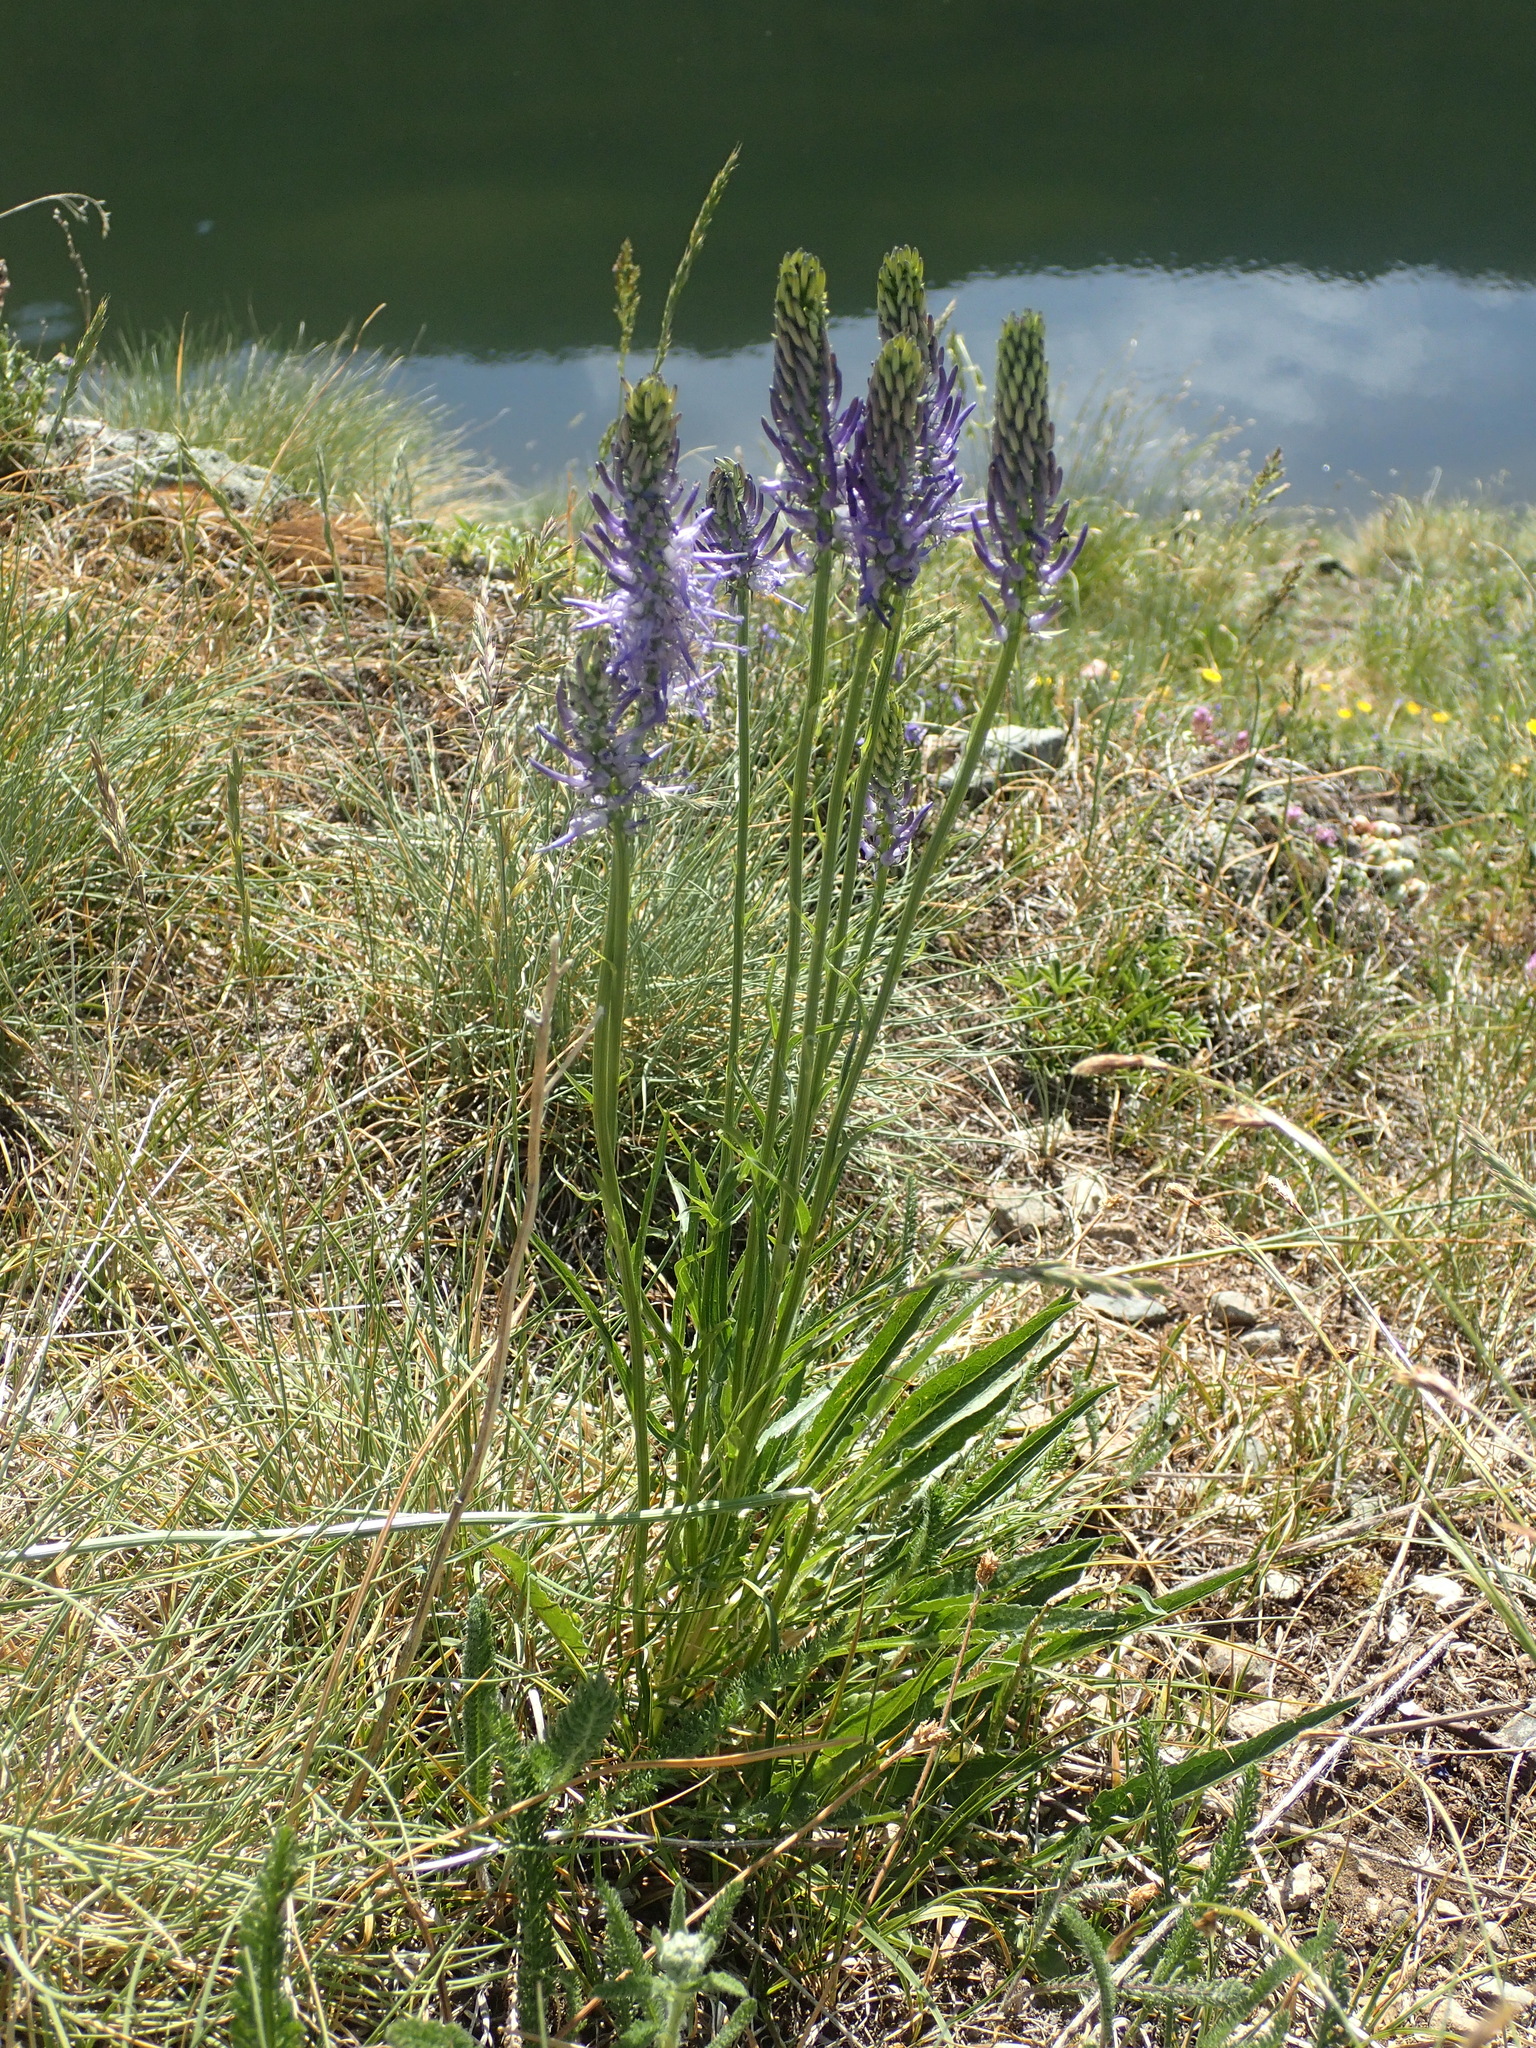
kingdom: Plantae
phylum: Tracheophyta
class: Magnoliopsida
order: Asterales
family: Campanulaceae
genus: Phyteuma
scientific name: Phyteuma betonicifolium
